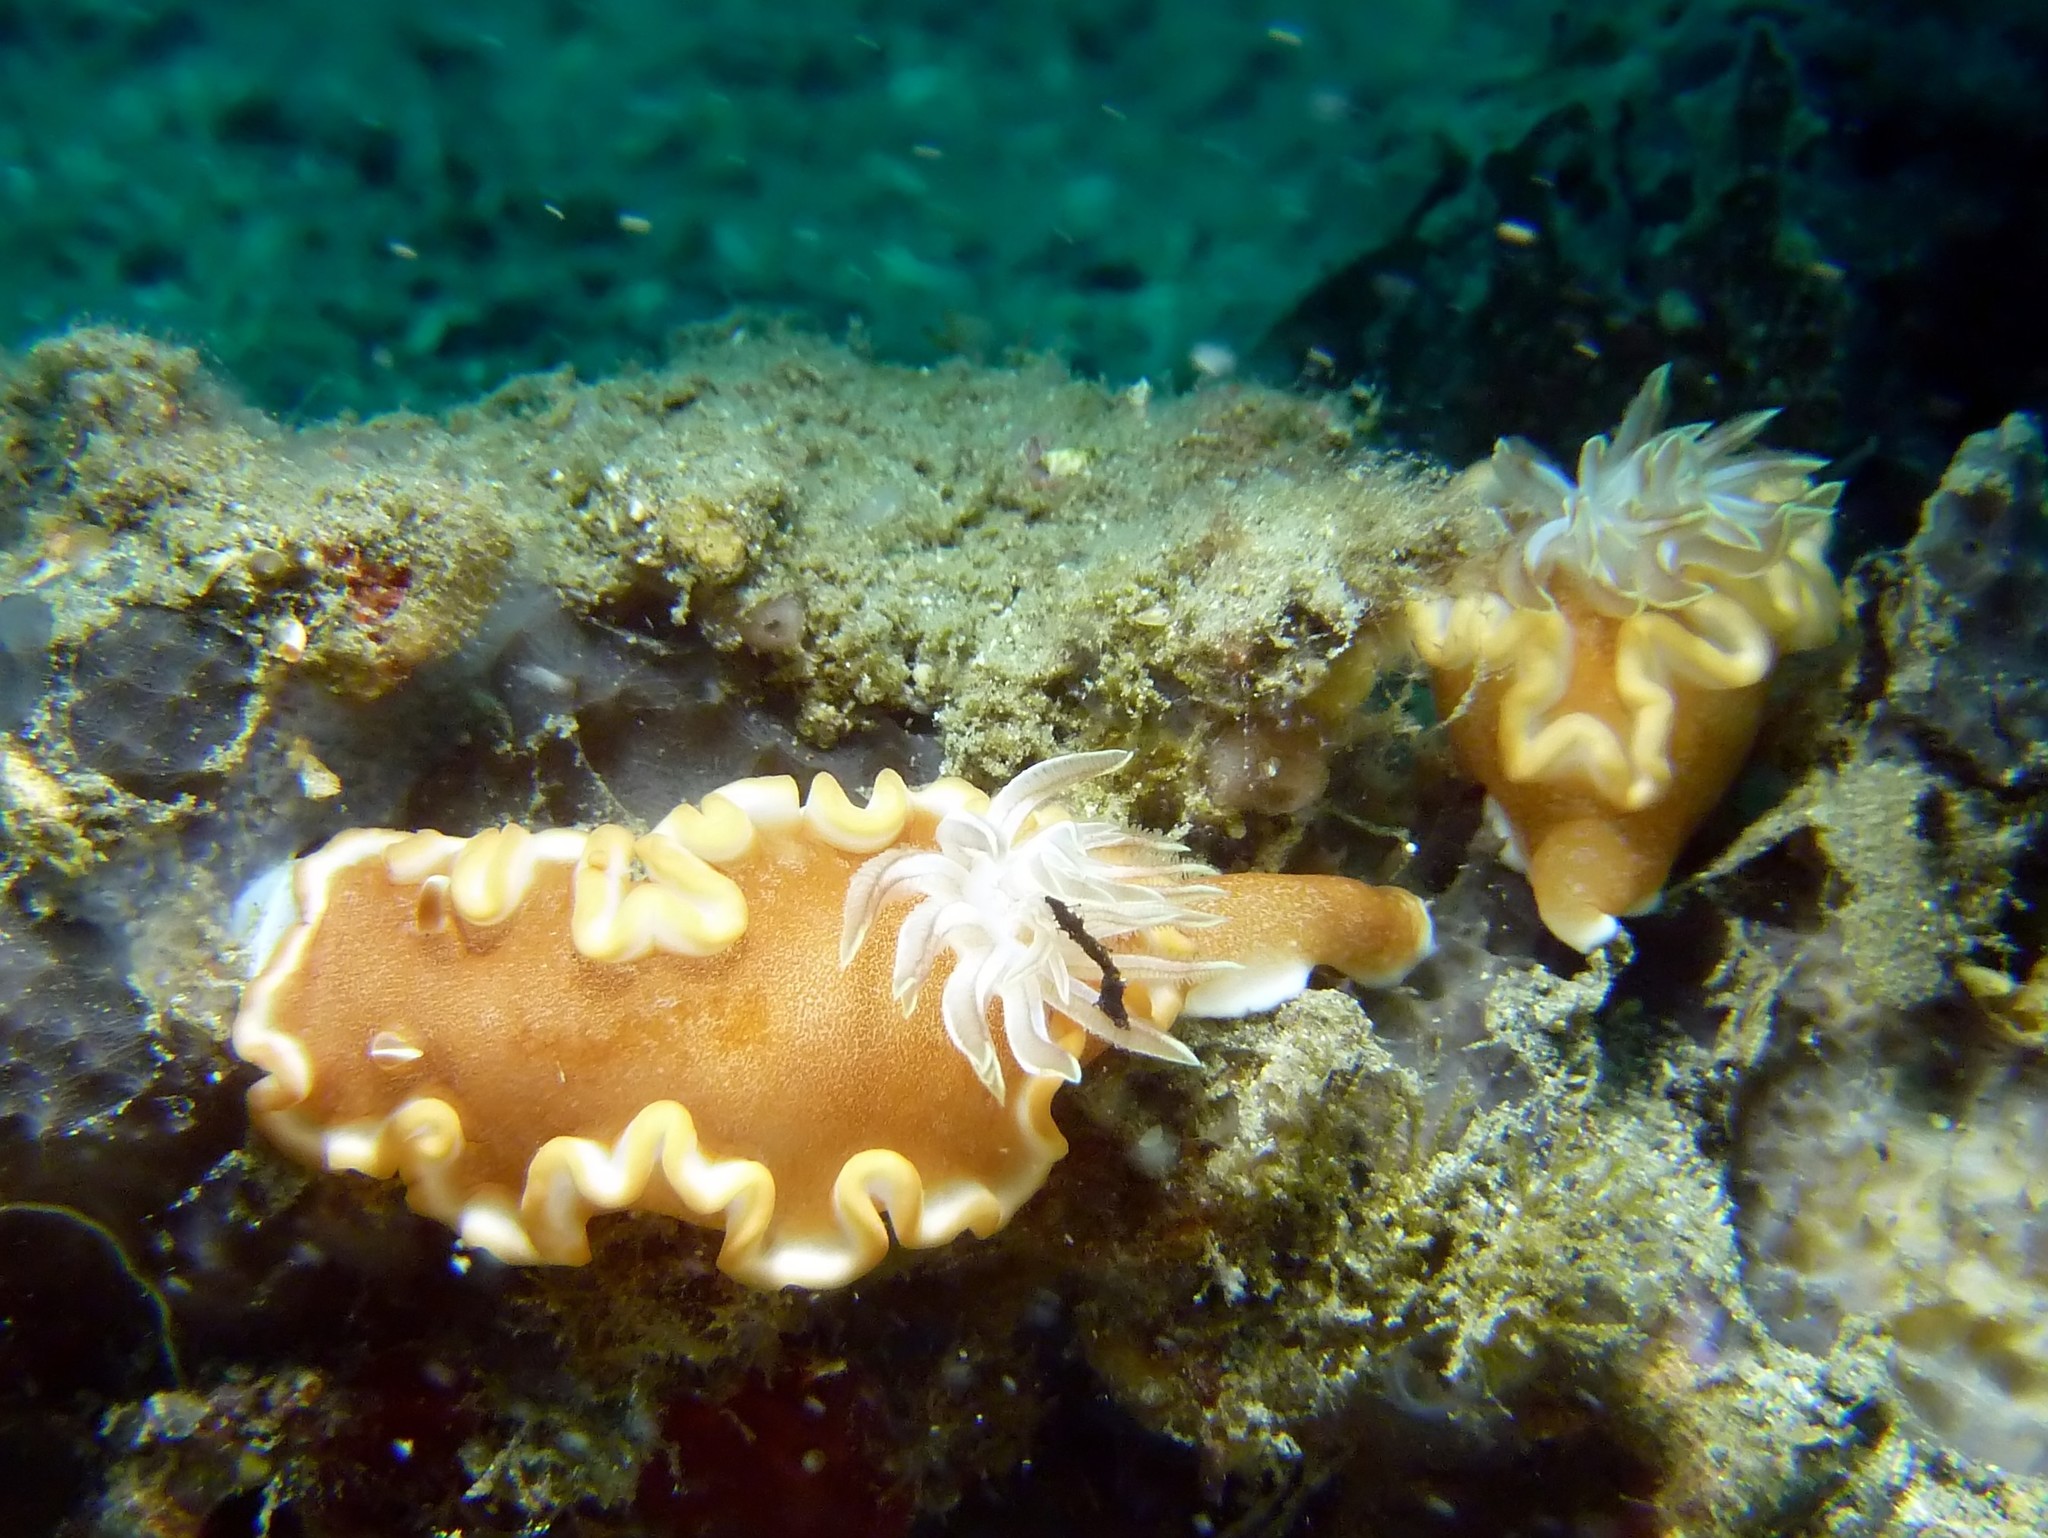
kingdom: Animalia
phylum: Mollusca
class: Gastropoda
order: Nudibranchia
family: Chromodorididae
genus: Glossodoris
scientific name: Glossodoris rufomarginata
